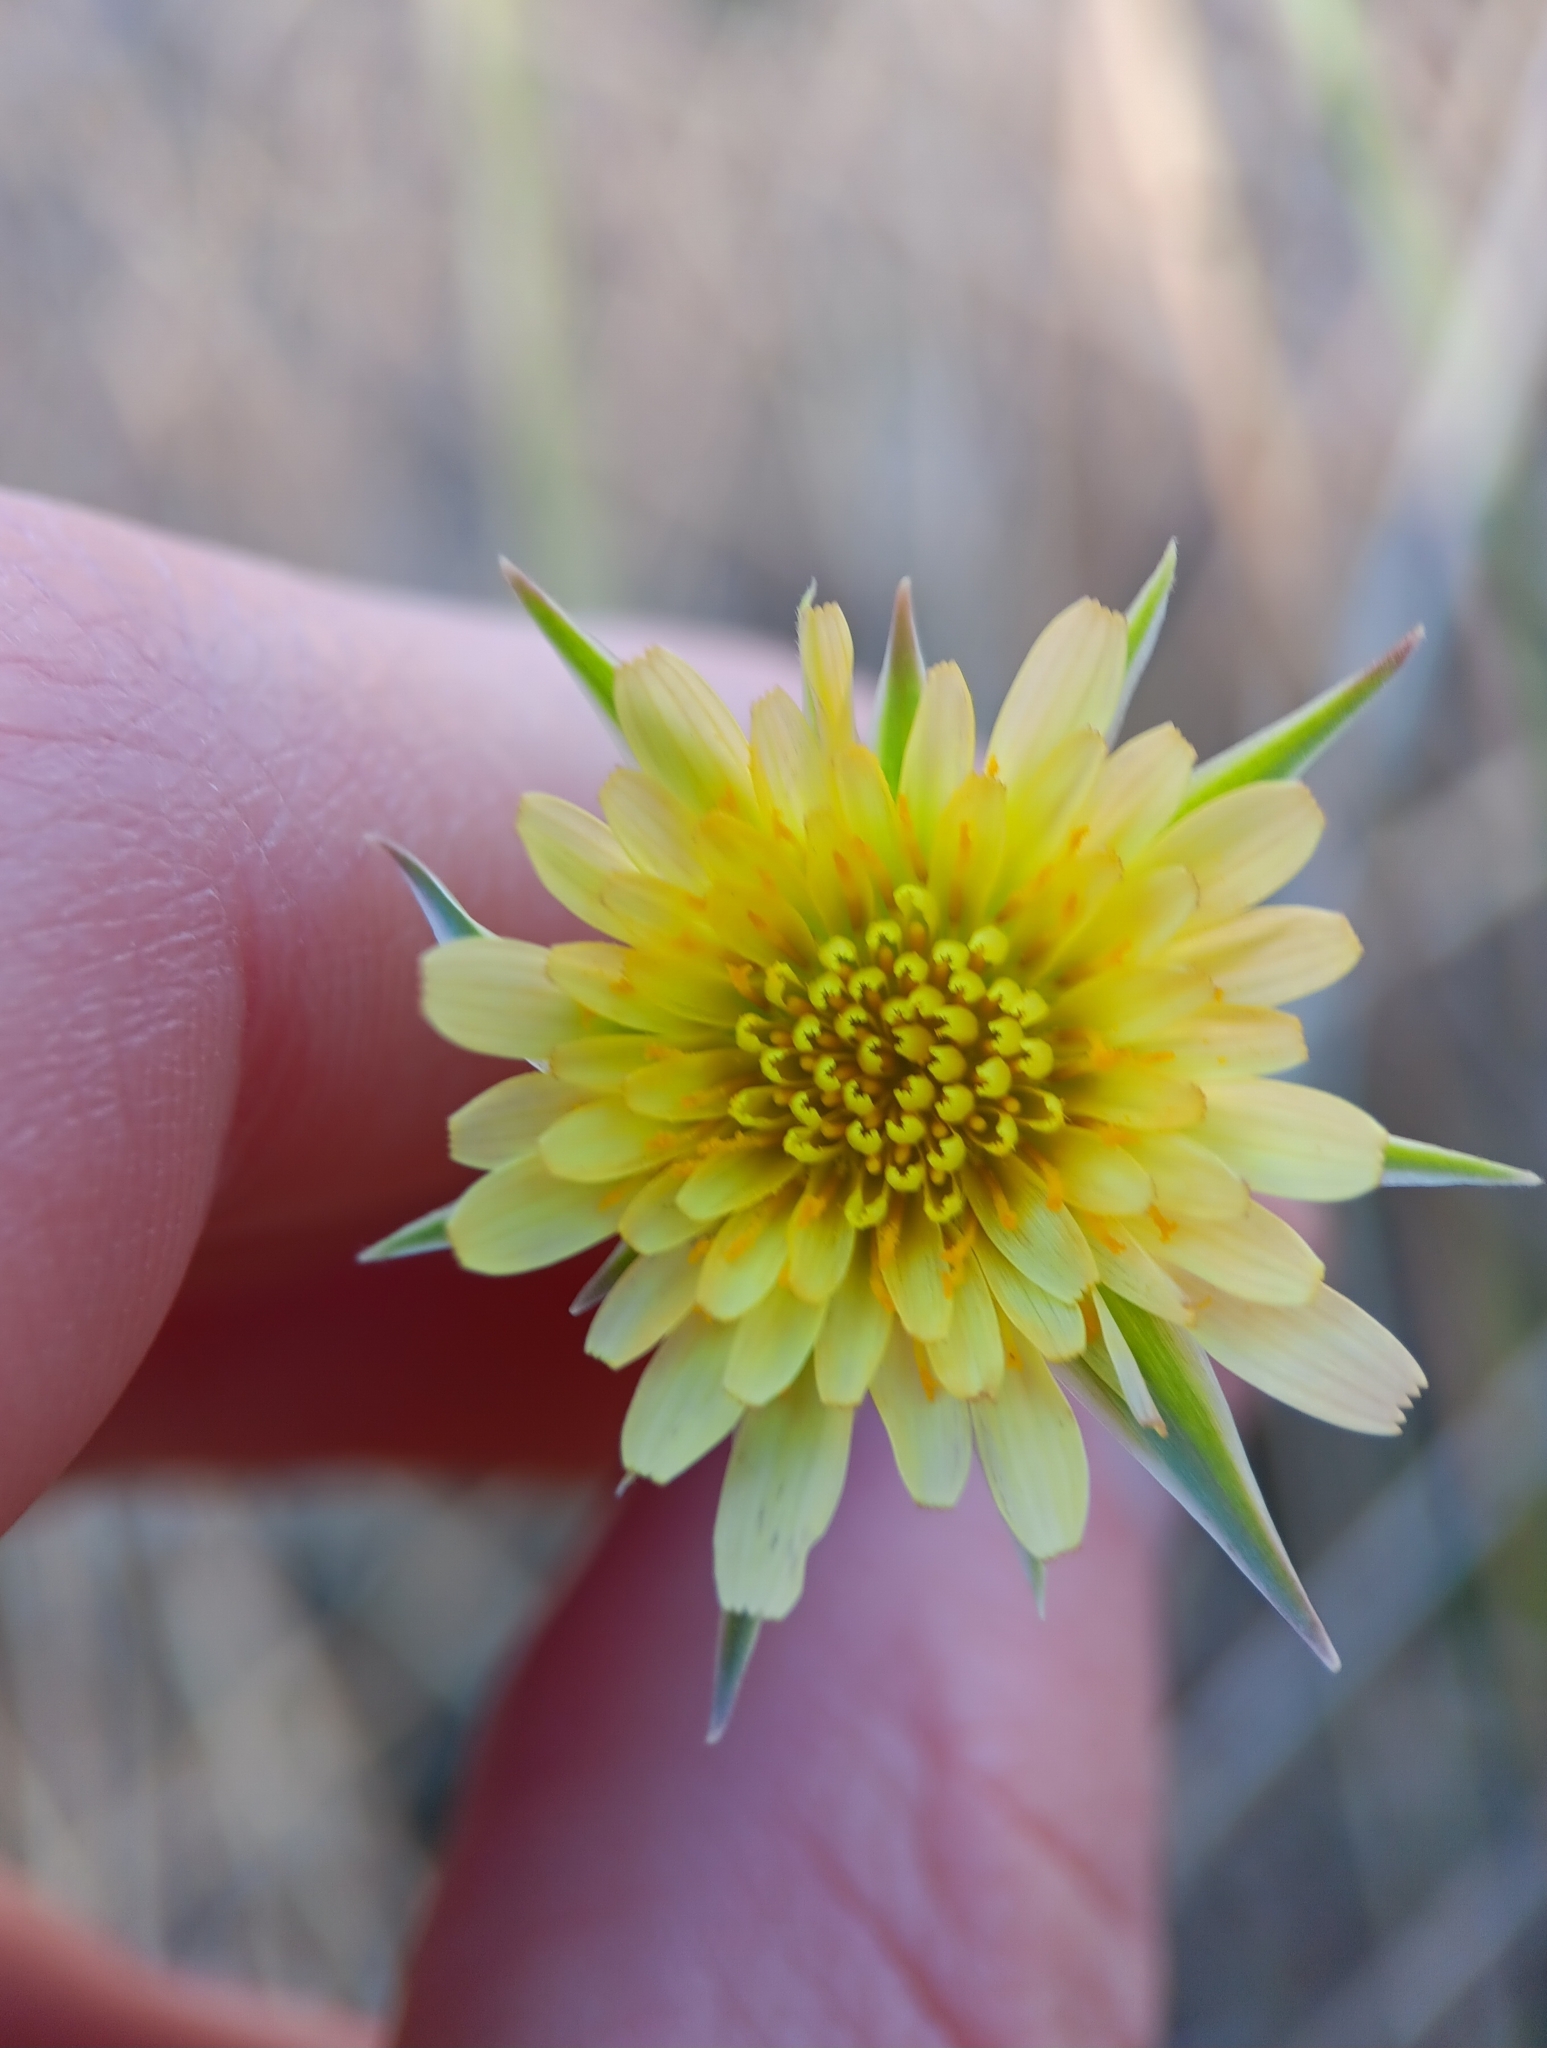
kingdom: Plantae
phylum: Tracheophyta
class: Magnoliopsida
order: Asterales
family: Asteraceae
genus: Microseris
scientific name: Microseris lindleyi
